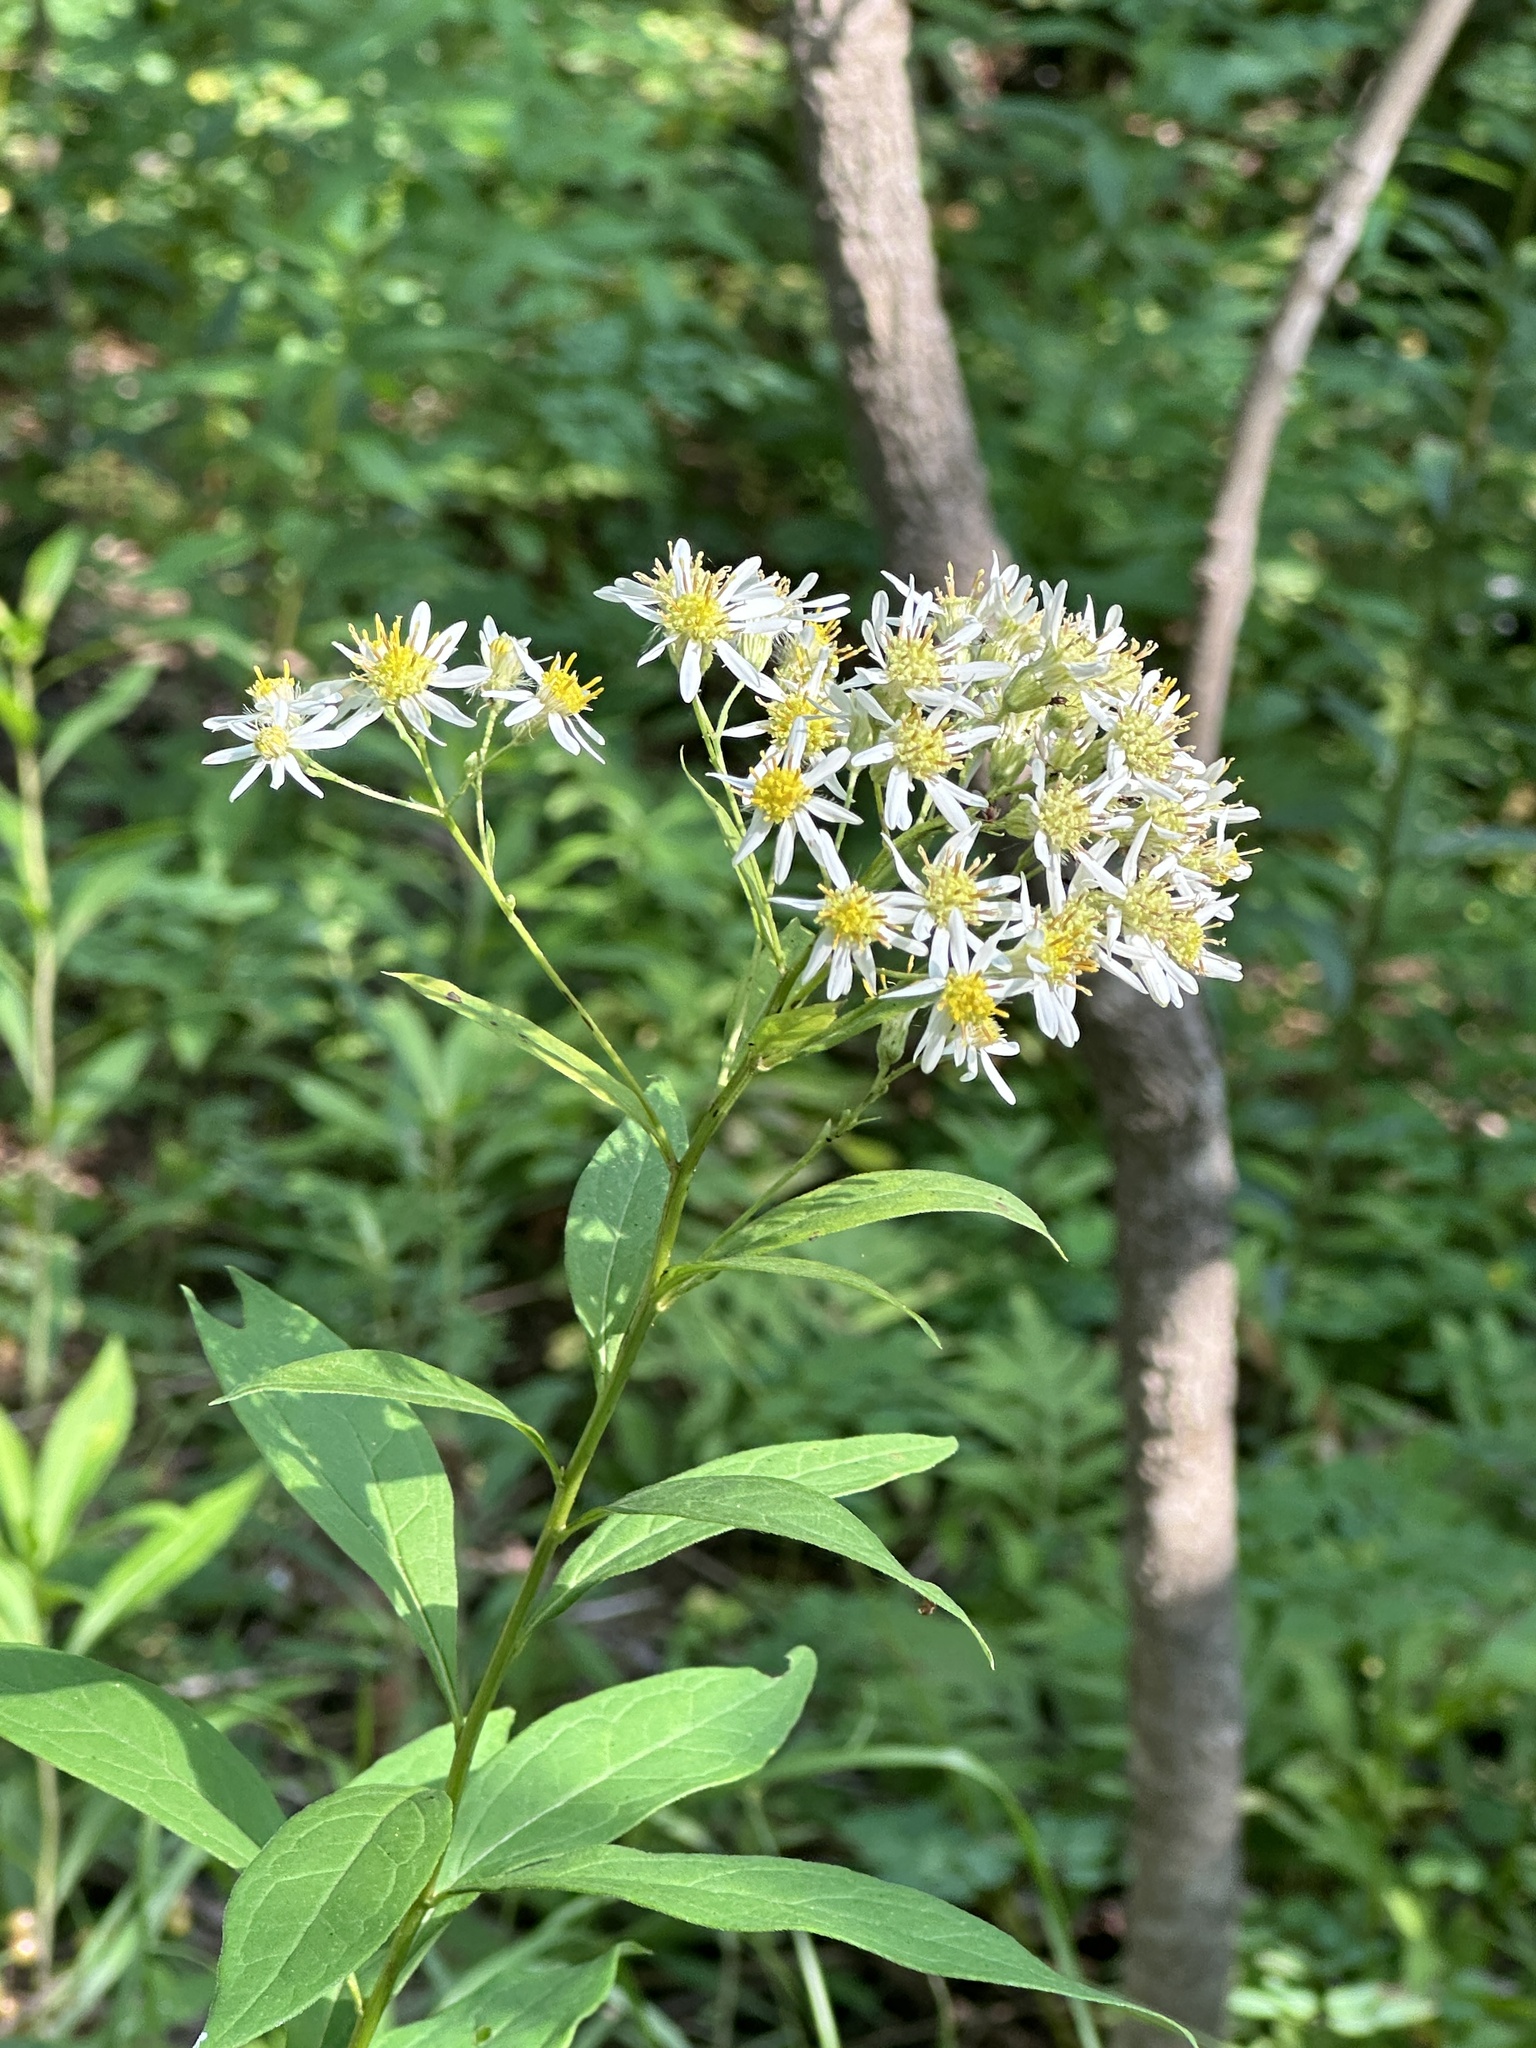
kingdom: Plantae
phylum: Tracheophyta
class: Magnoliopsida
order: Asterales
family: Asteraceae
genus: Doellingeria
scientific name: Doellingeria umbellata
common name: Flat-top white aster
